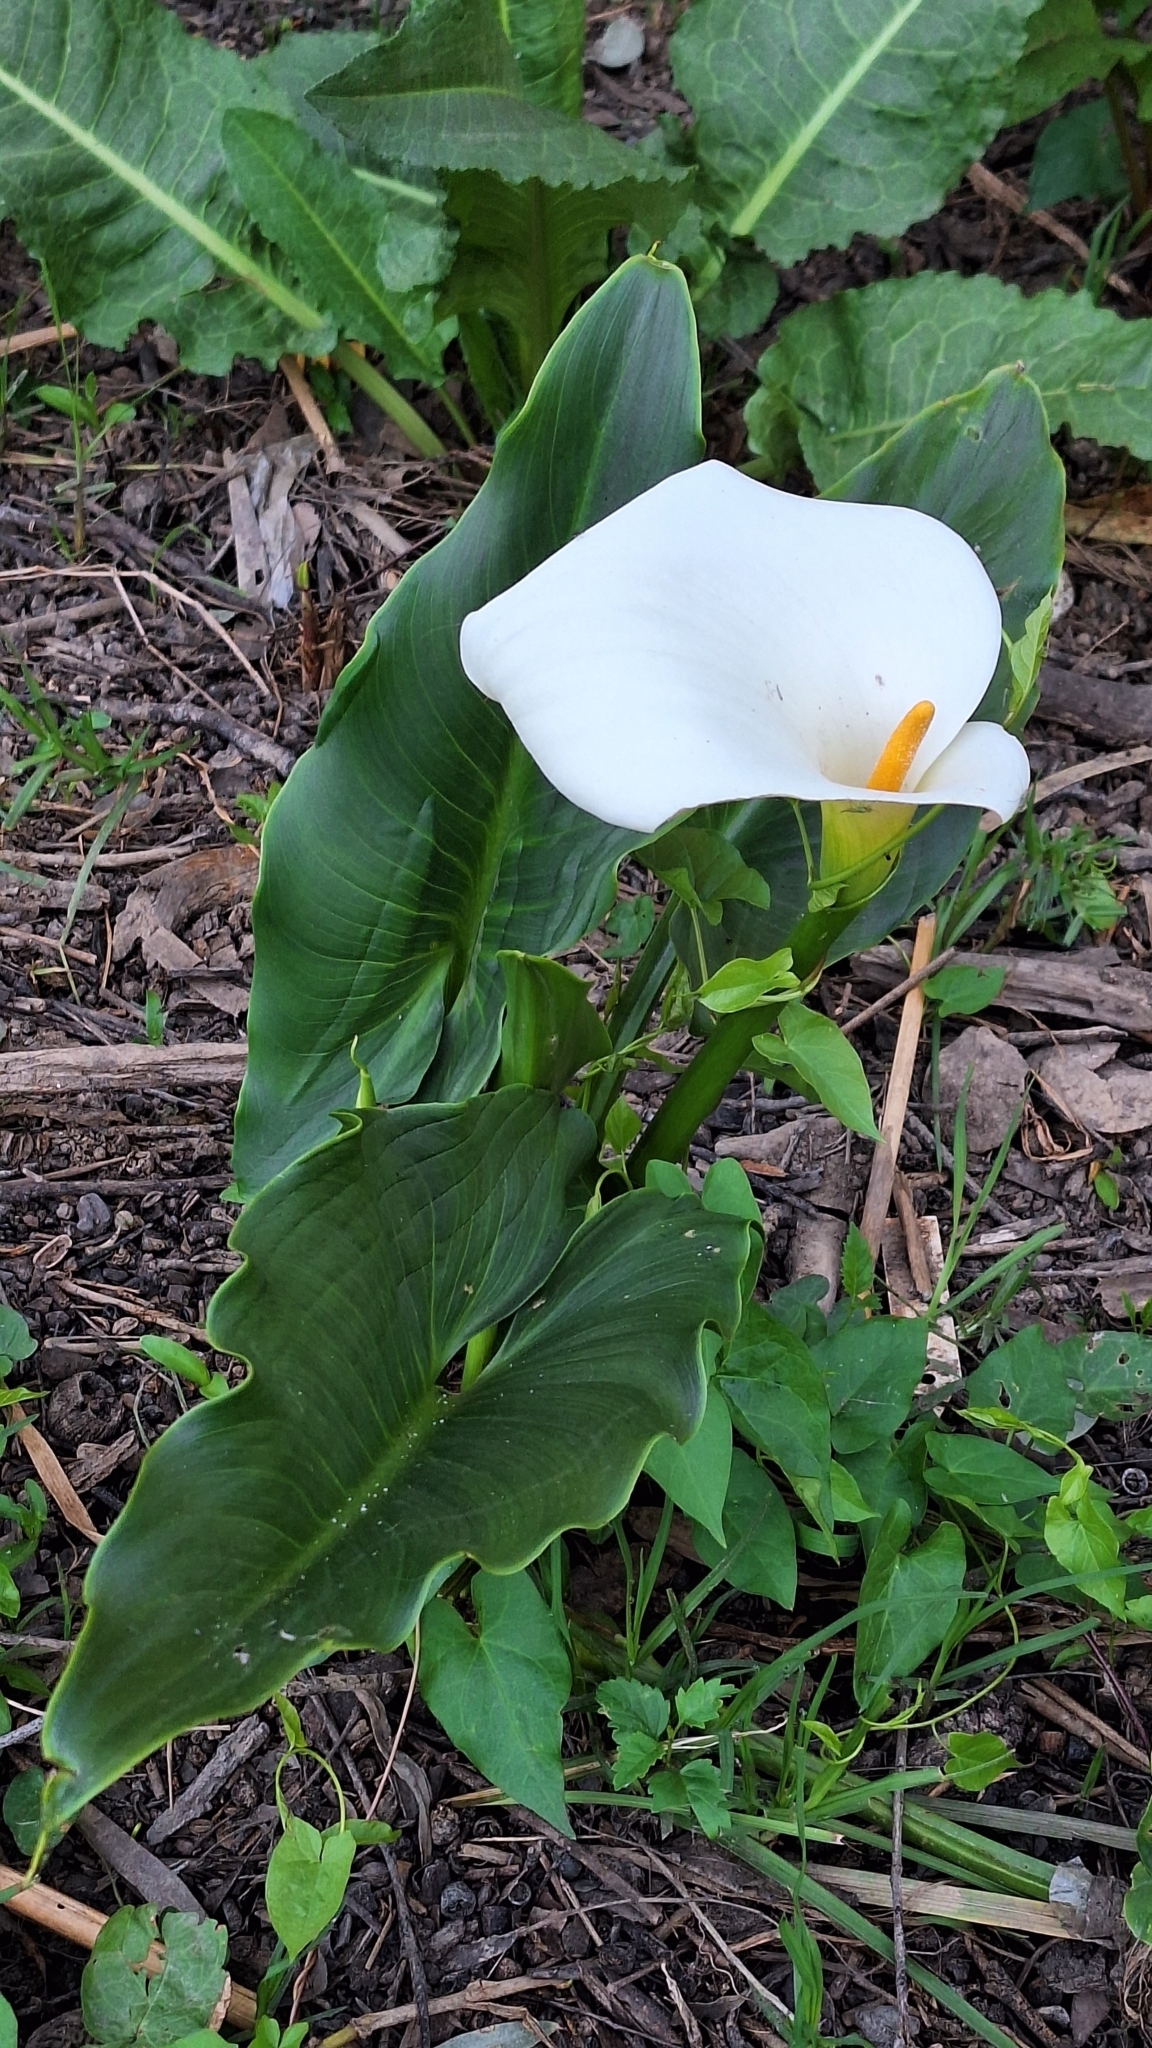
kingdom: Plantae
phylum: Tracheophyta
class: Liliopsida
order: Alismatales
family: Araceae
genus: Zantedeschia
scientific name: Zantedeschia aethiopica
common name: Altar-lily
